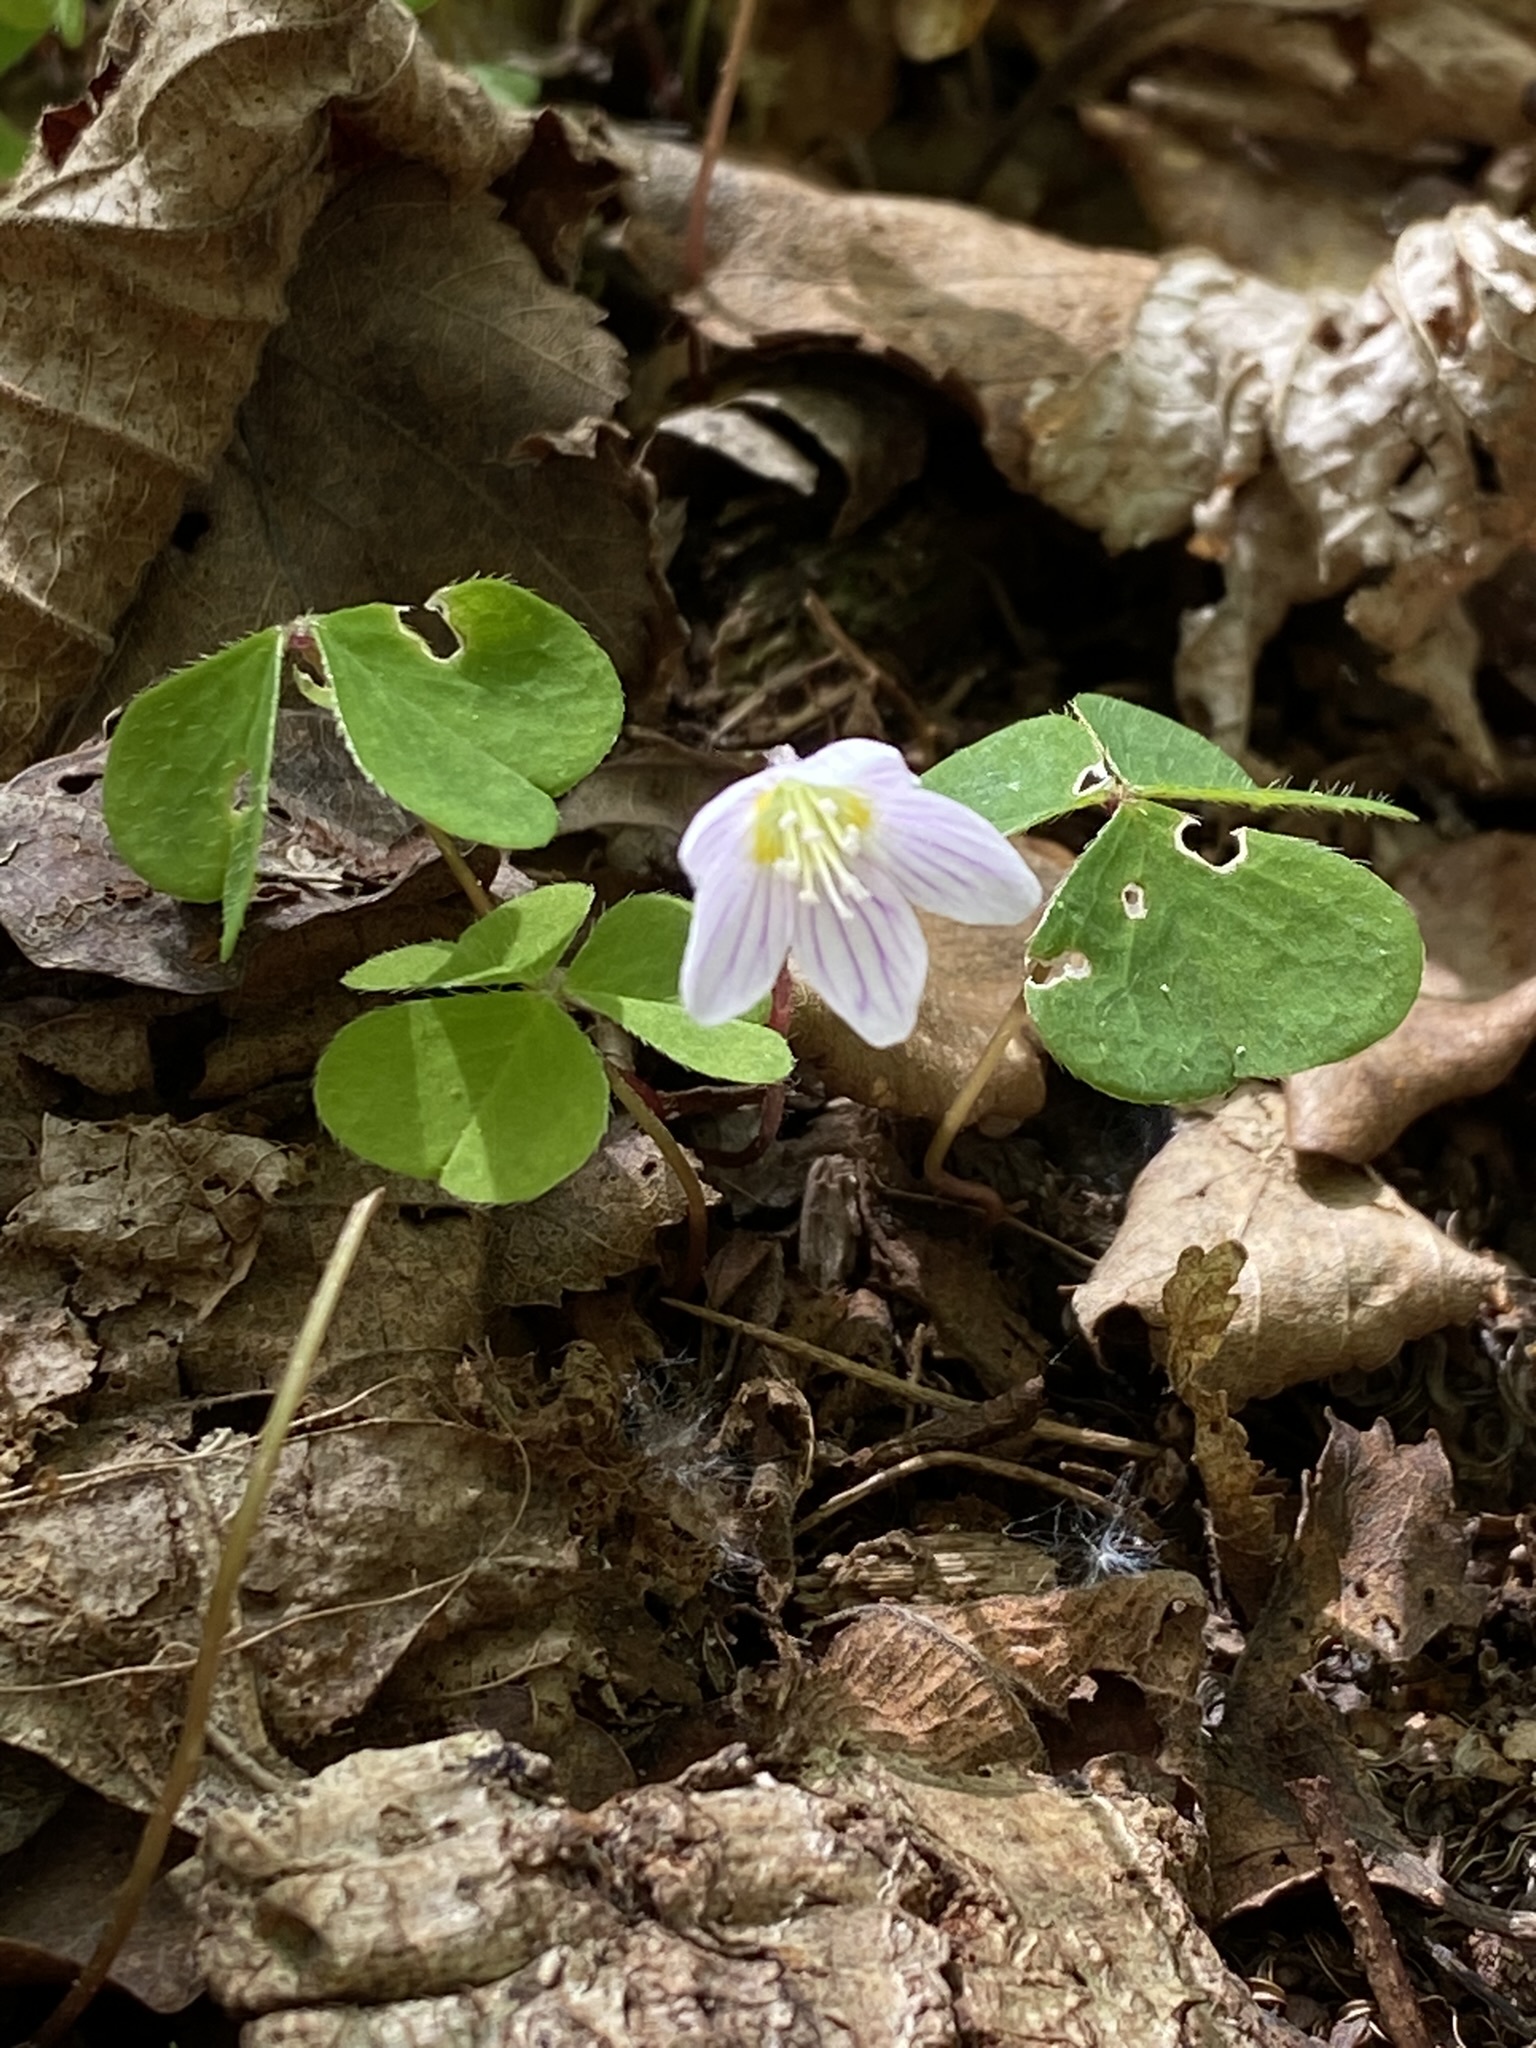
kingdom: Plantae
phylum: Tracheophyta
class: Magnoliopsida
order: Oxalidales
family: Oxalidaceae
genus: Oxalis
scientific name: Oxalis acetosella
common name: Wood-sorrel
